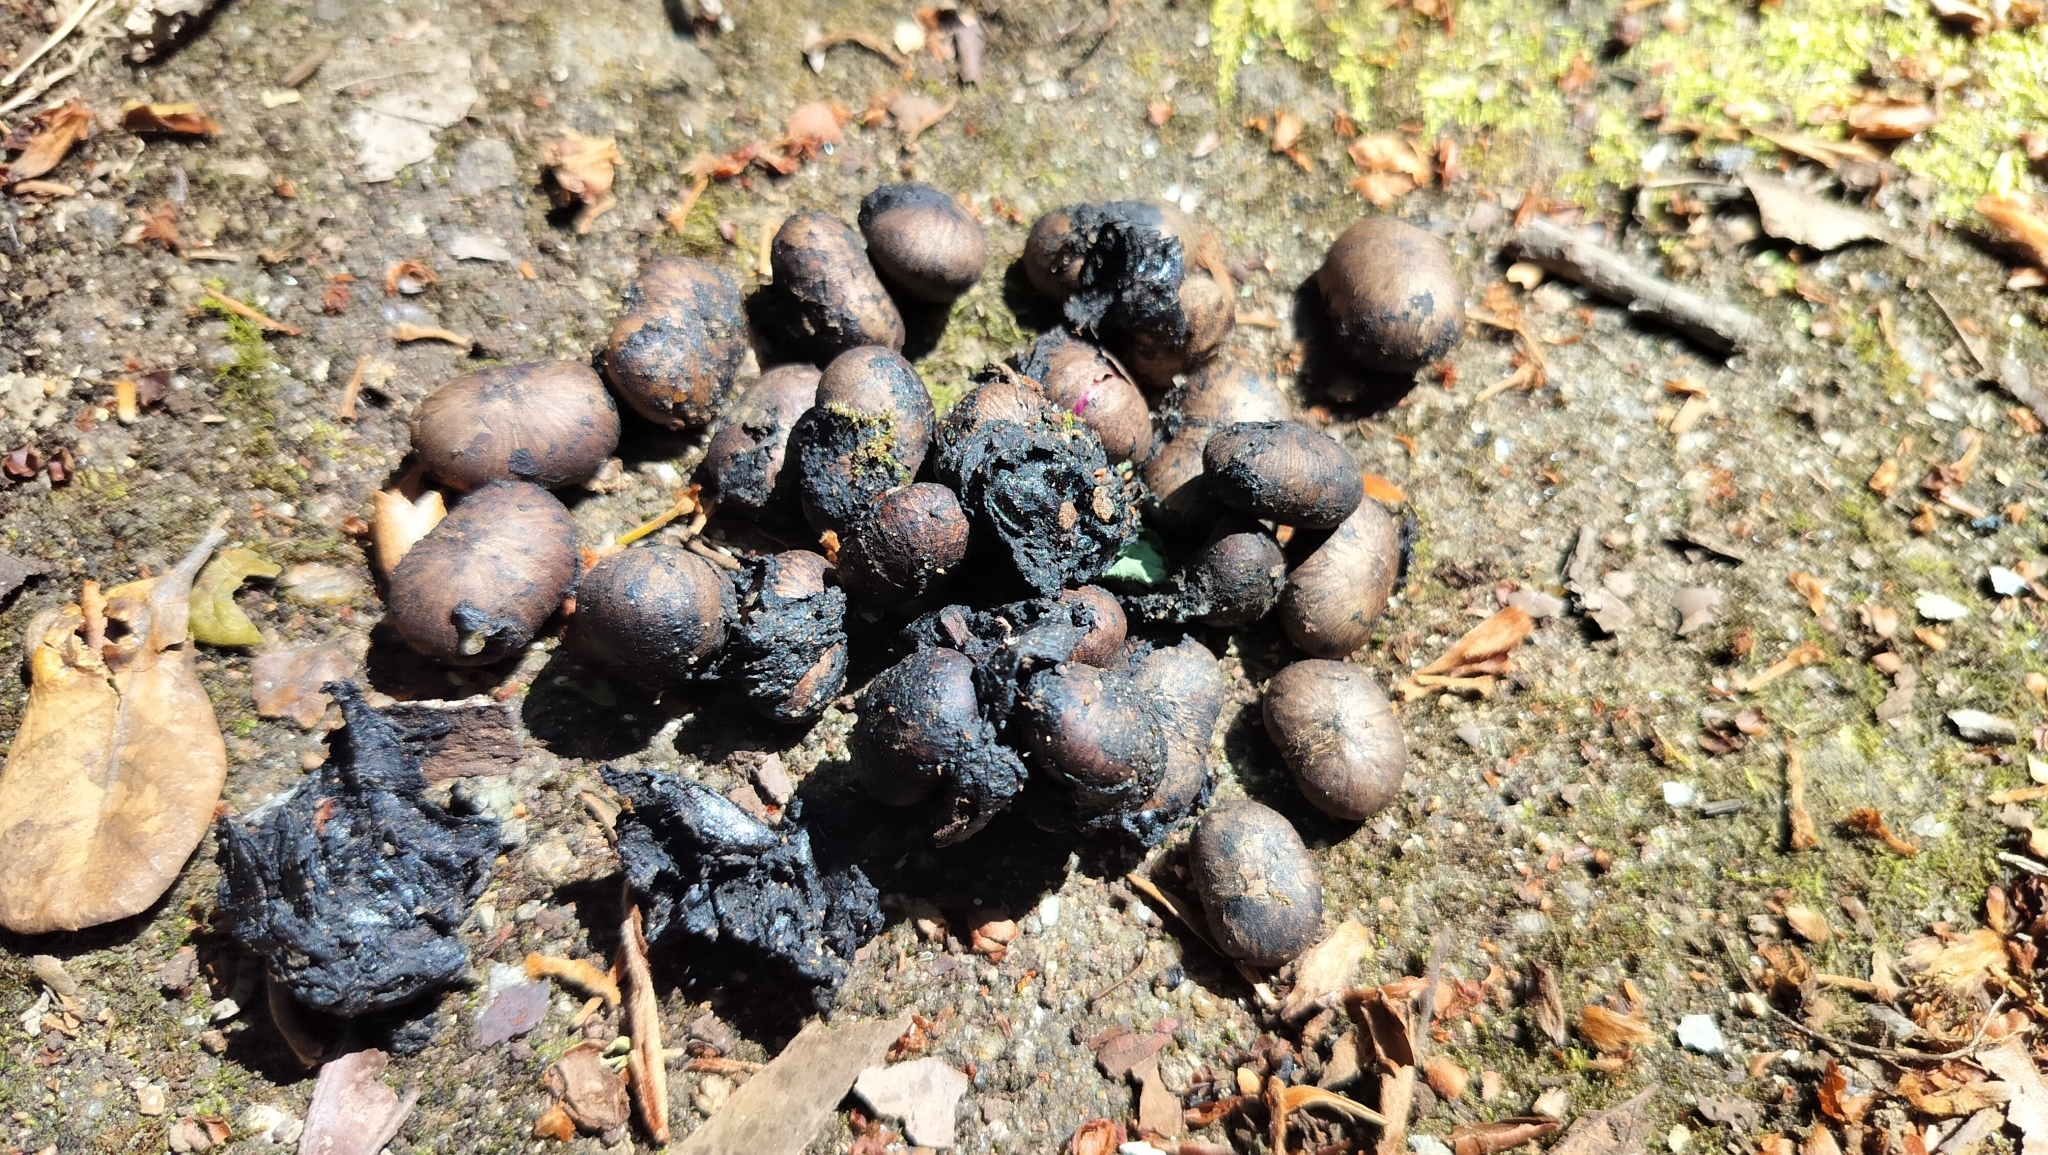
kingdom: Plantae
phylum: Tracheophyta
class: Magnoliopsida
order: Sapindales
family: Anacardiaceae
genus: Nothopegia
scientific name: Nothopegia beddomei
